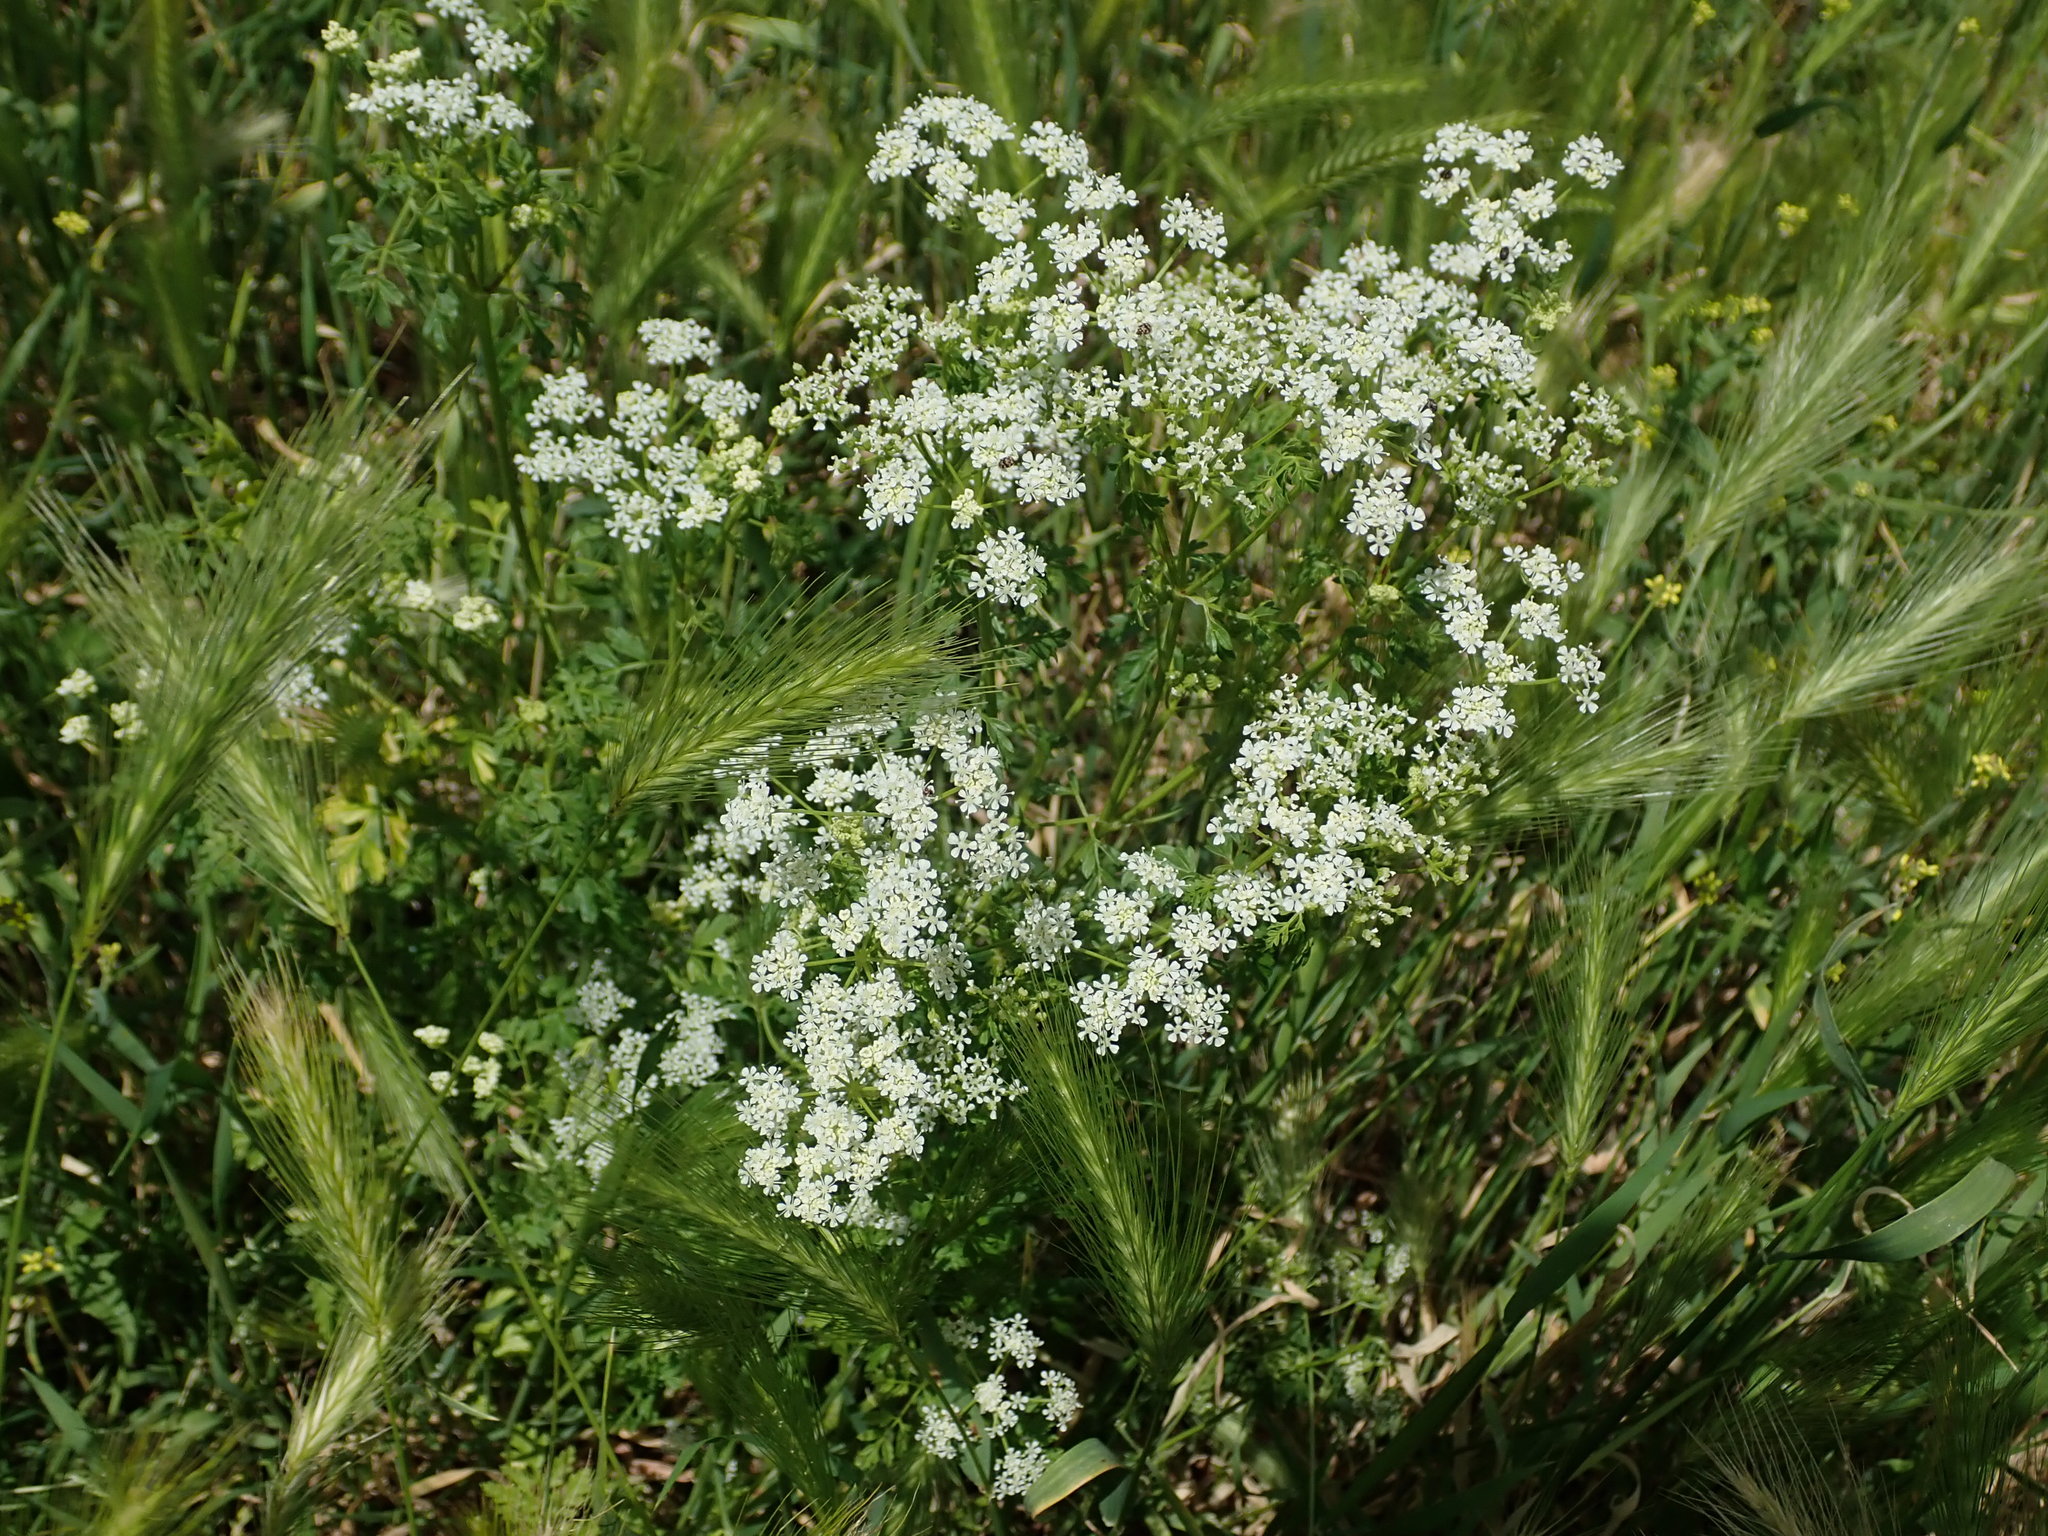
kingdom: Plantae
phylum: Tracheophyta
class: Magnoliopsida
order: Apiales
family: Apiaceae
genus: Conium
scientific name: Conium maculatum
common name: Hemlock
